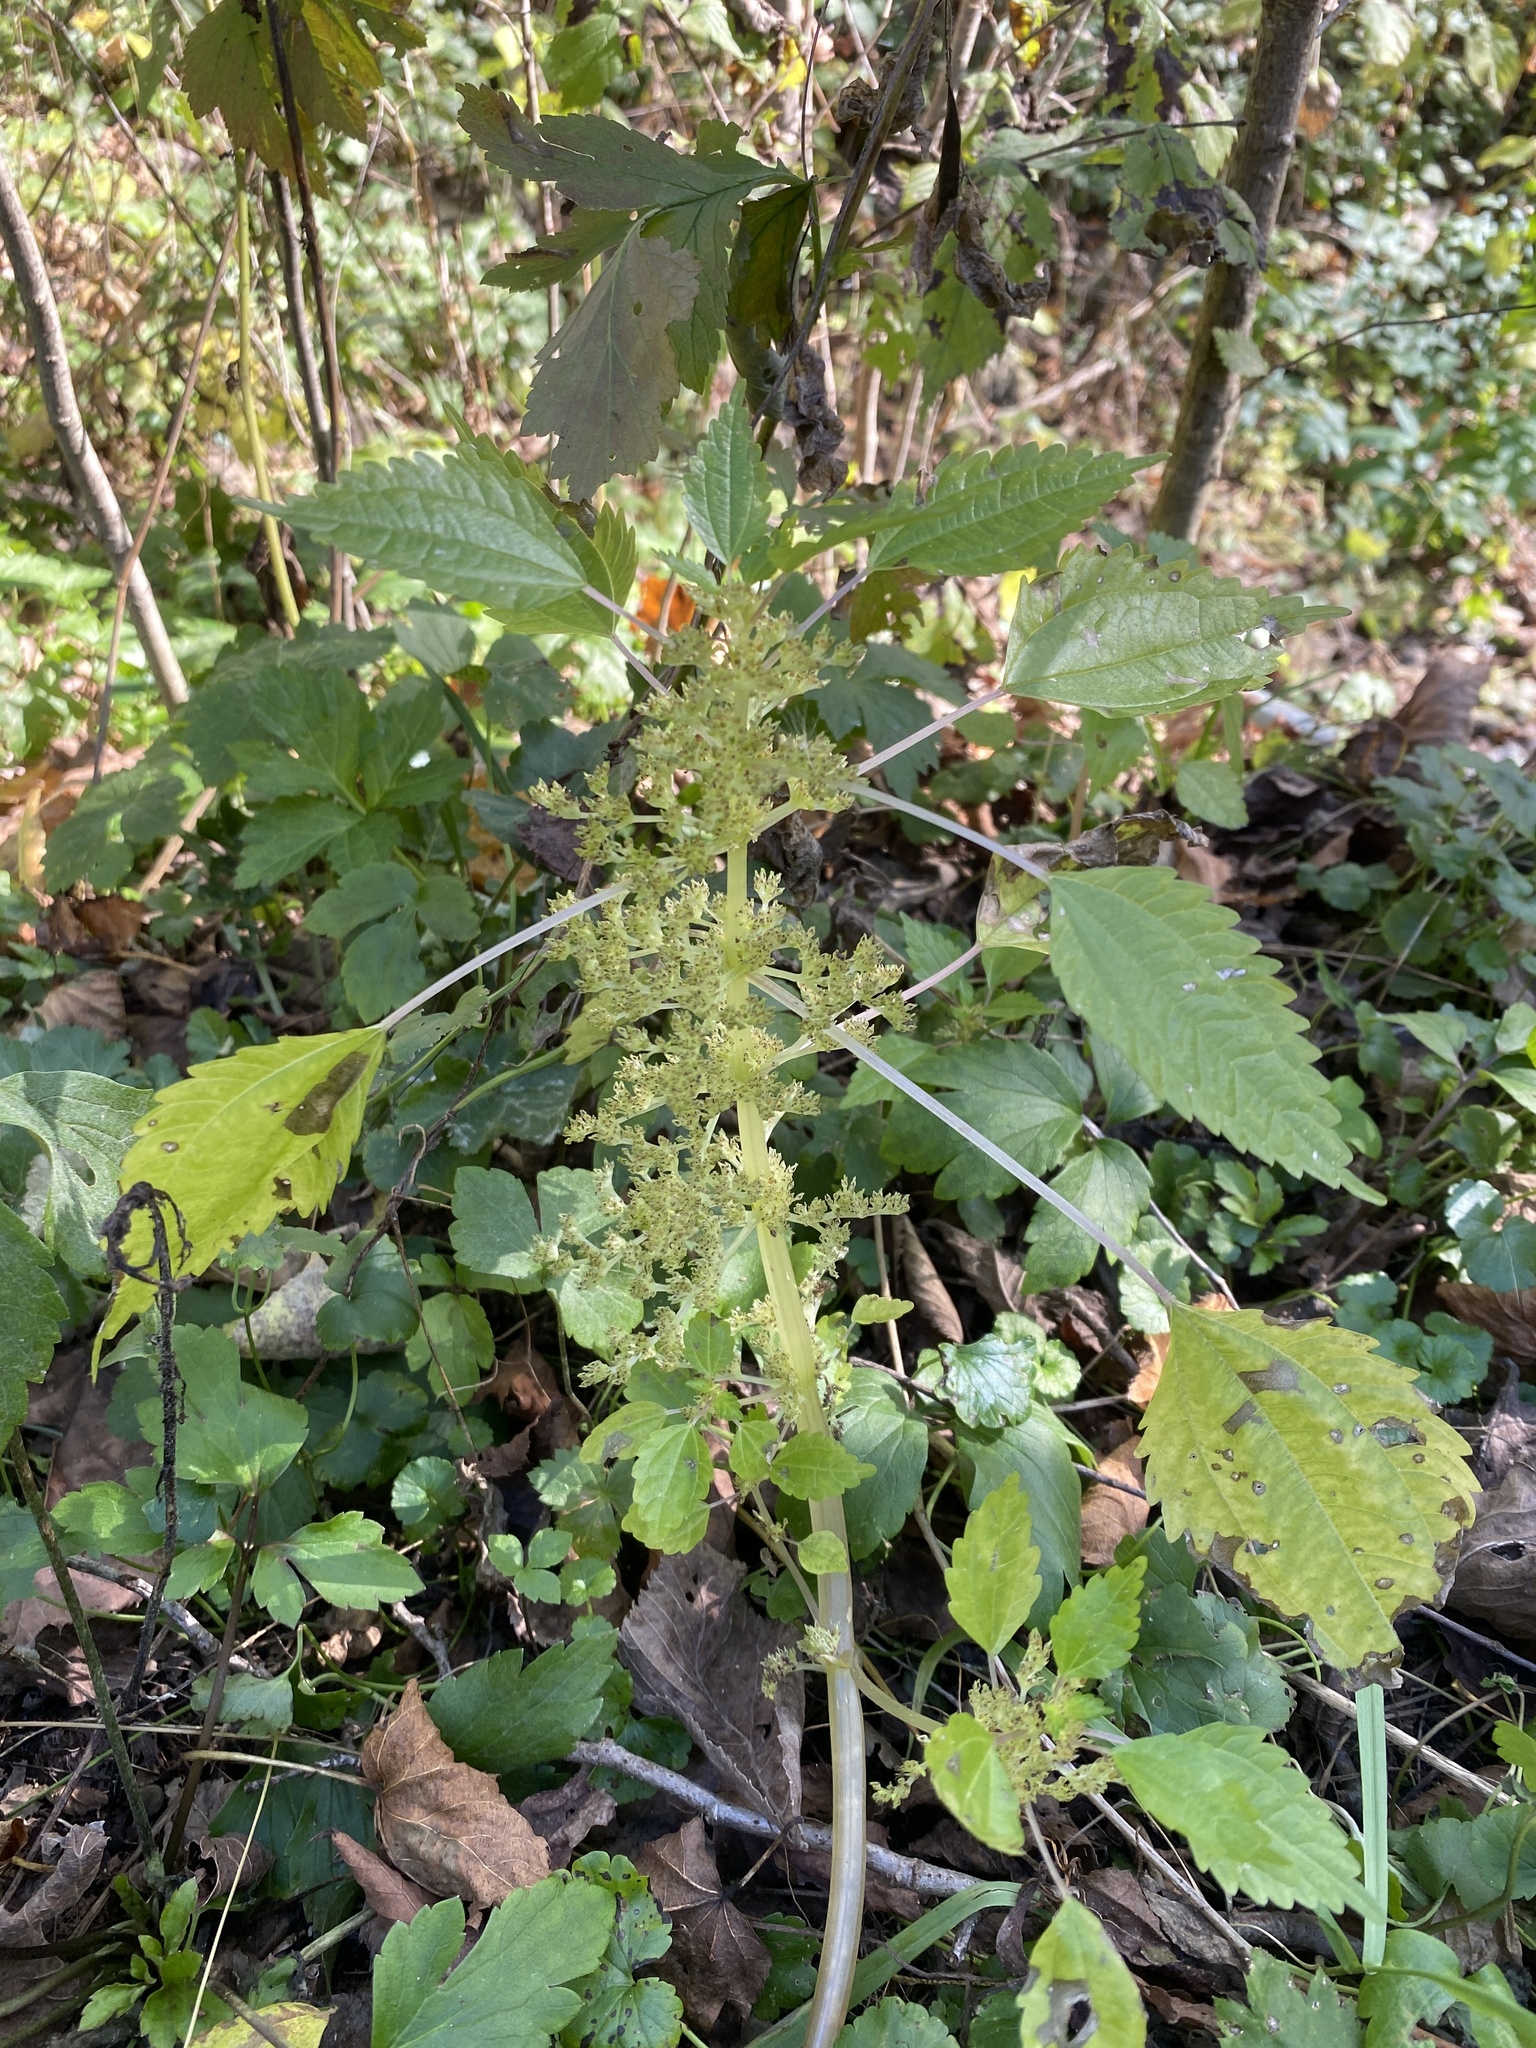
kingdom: Plantae
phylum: Tracheophyta
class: Magnoliopsida
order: Rosales
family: Urticaceae
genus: Laportea
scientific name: Laportea canadensis
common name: Canada nettle
